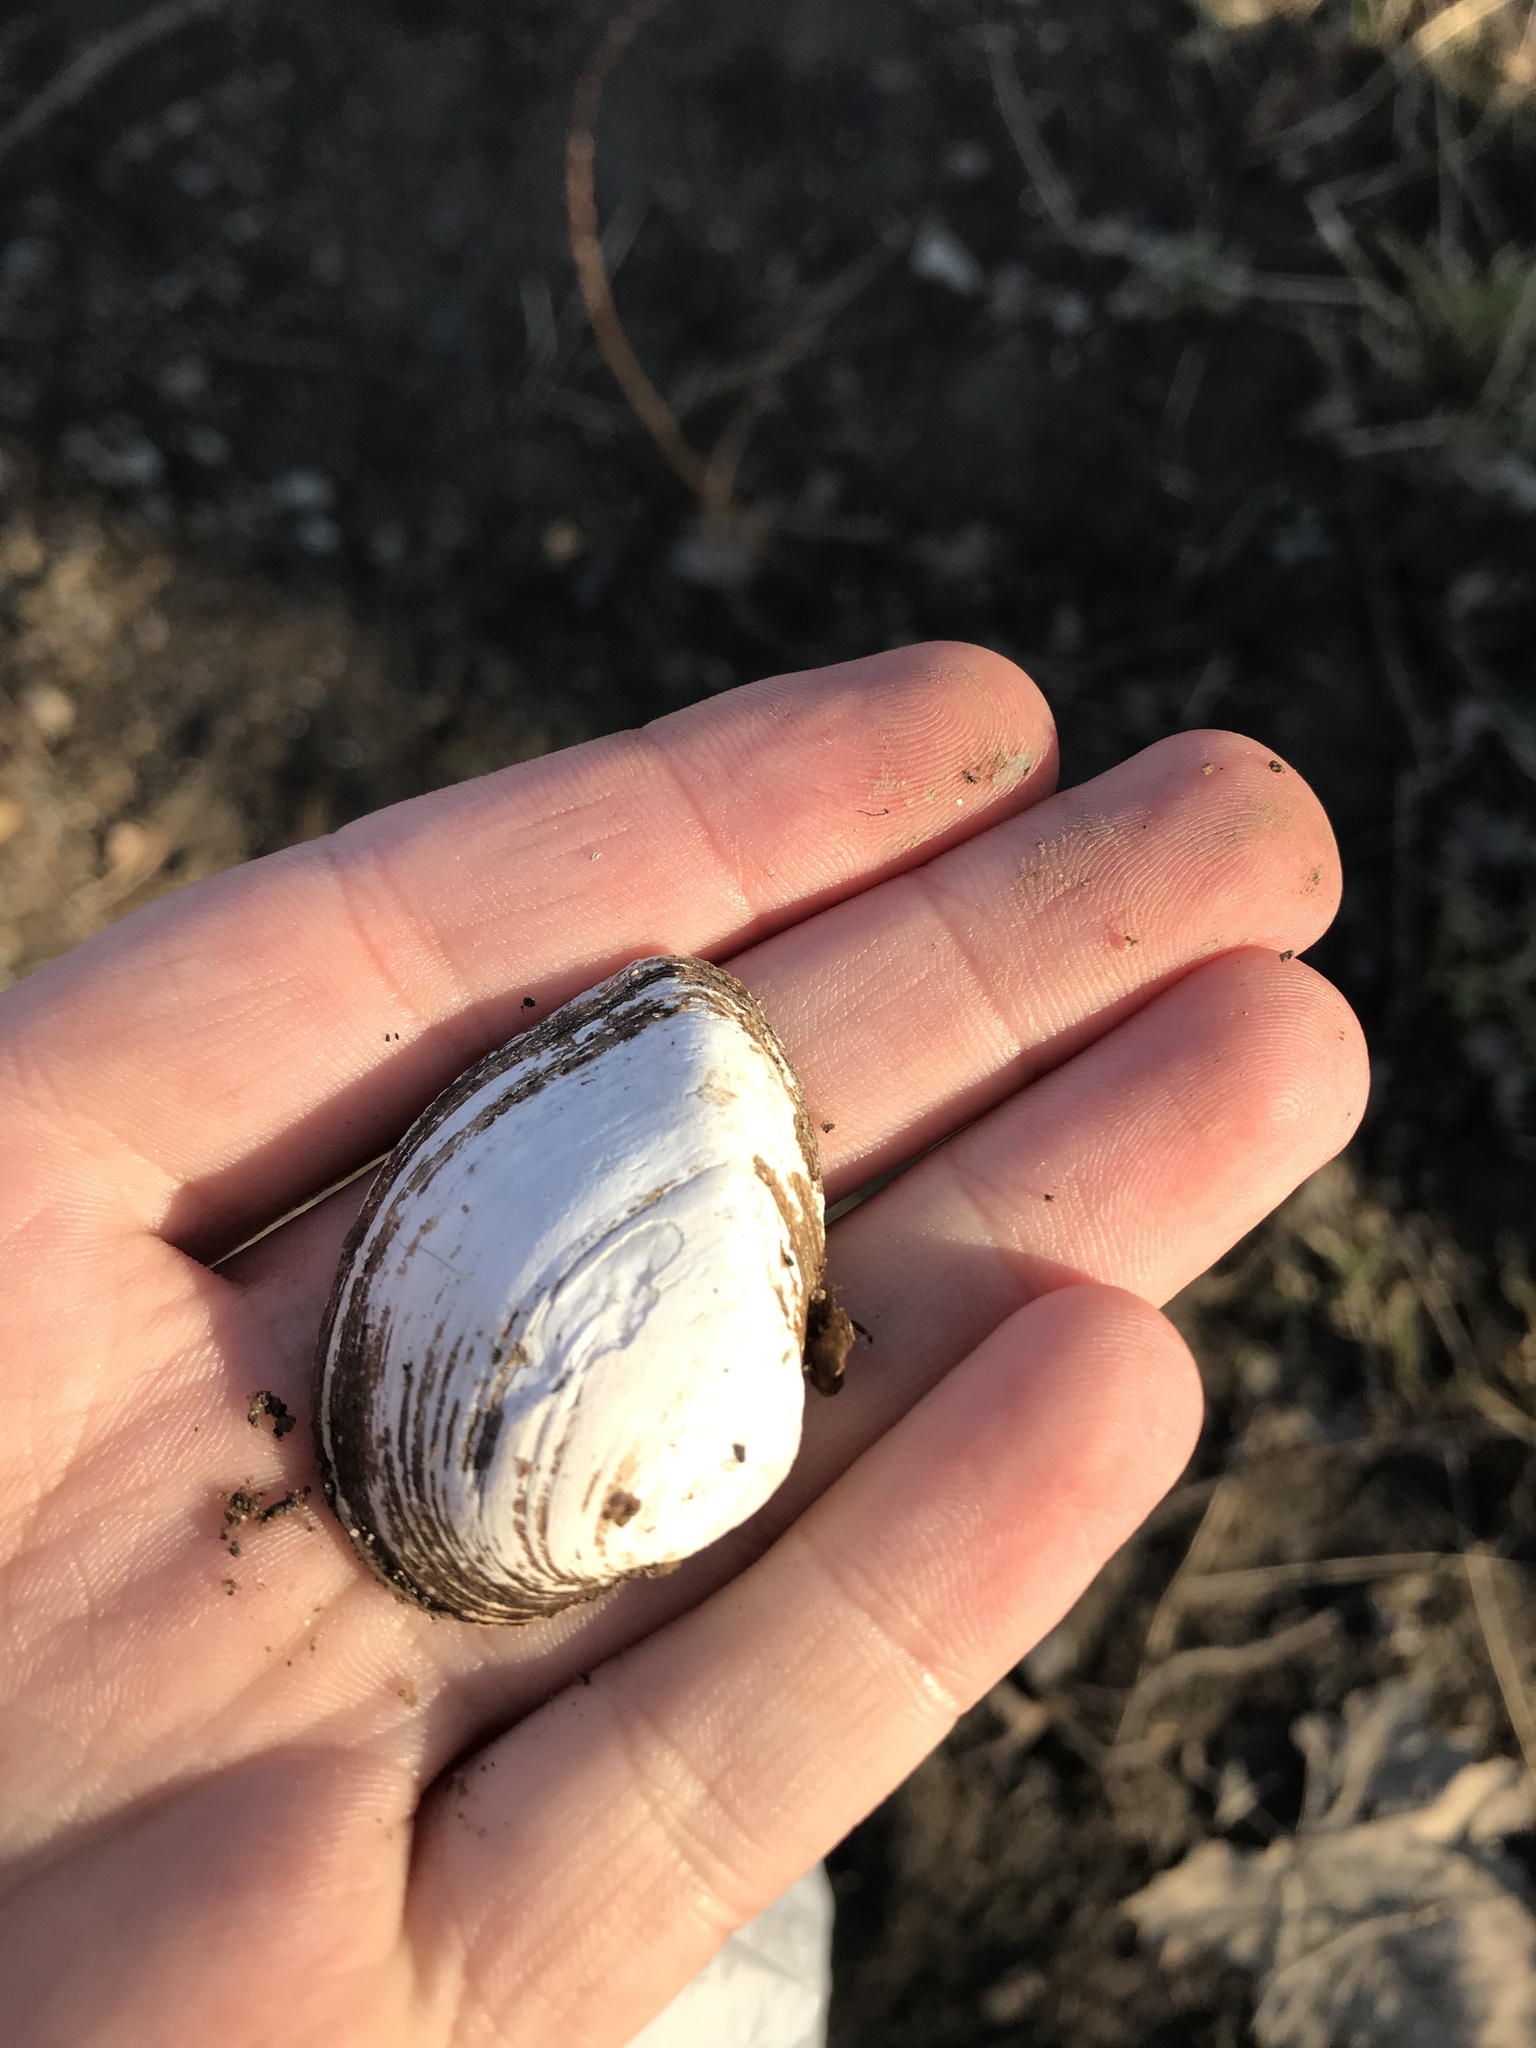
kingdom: Animalia
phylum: Mollusca
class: Bivalvia
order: Unionida
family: Unionidae
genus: Truncilla
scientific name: Truncilla truncata
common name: Deertoe
